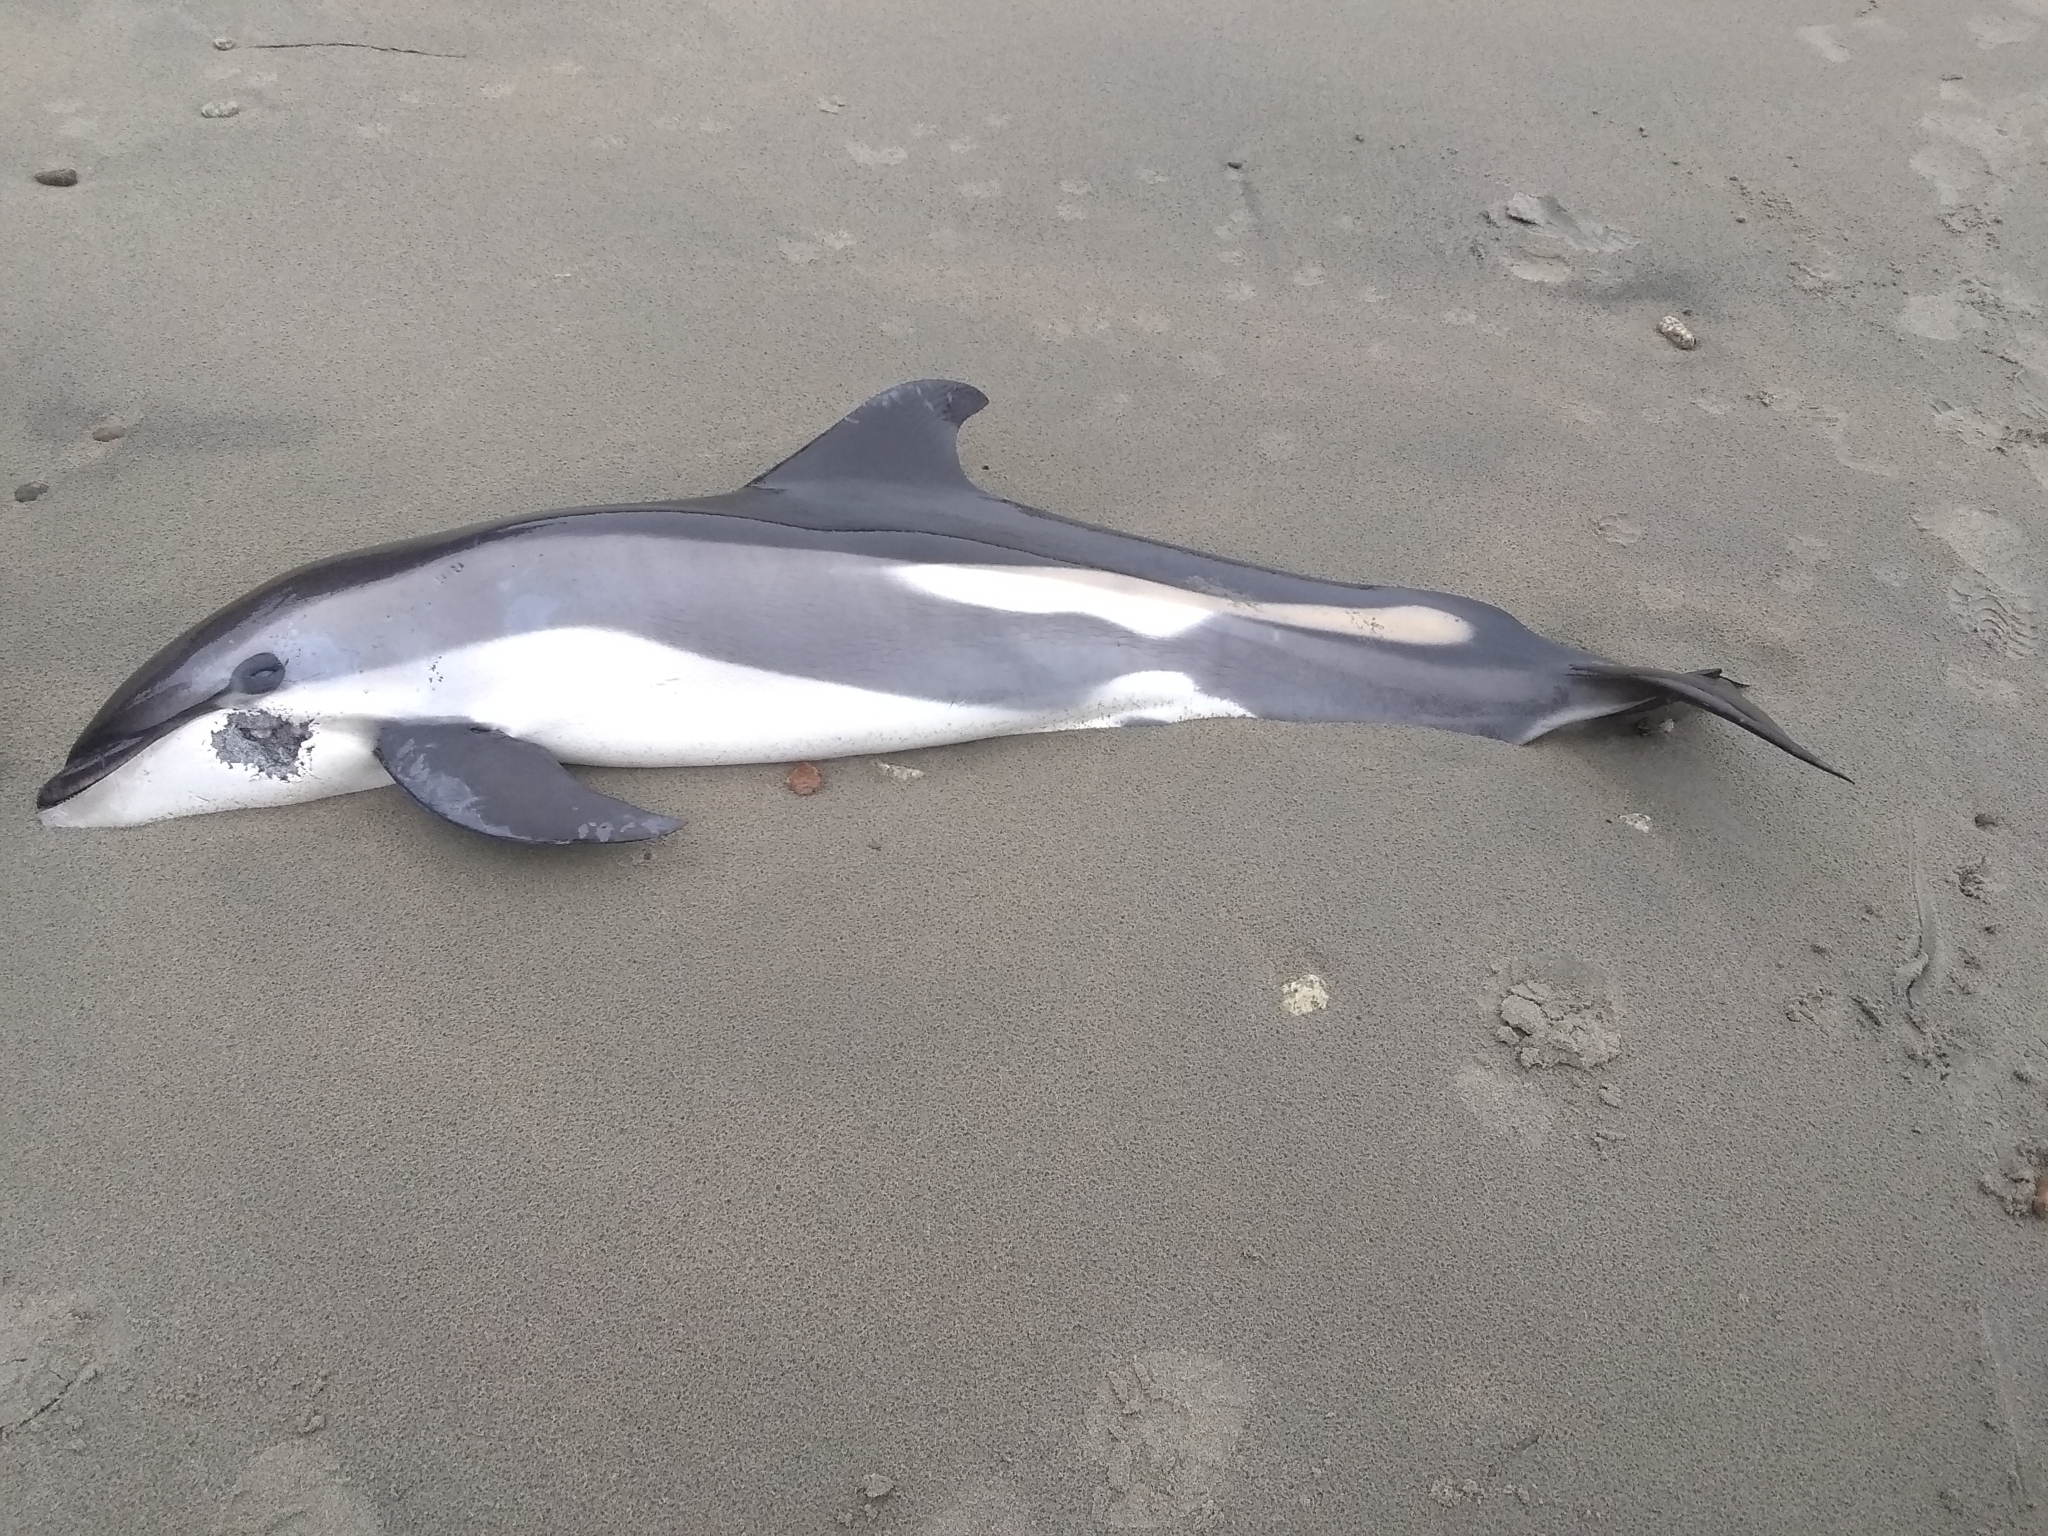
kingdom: Animalia
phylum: Chordata
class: Mammalia
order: Cetacea
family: Delphinidae
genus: Lagenorhynchus
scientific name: Lagenorhynchus acutus
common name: Atlantic white-sided dolphin
